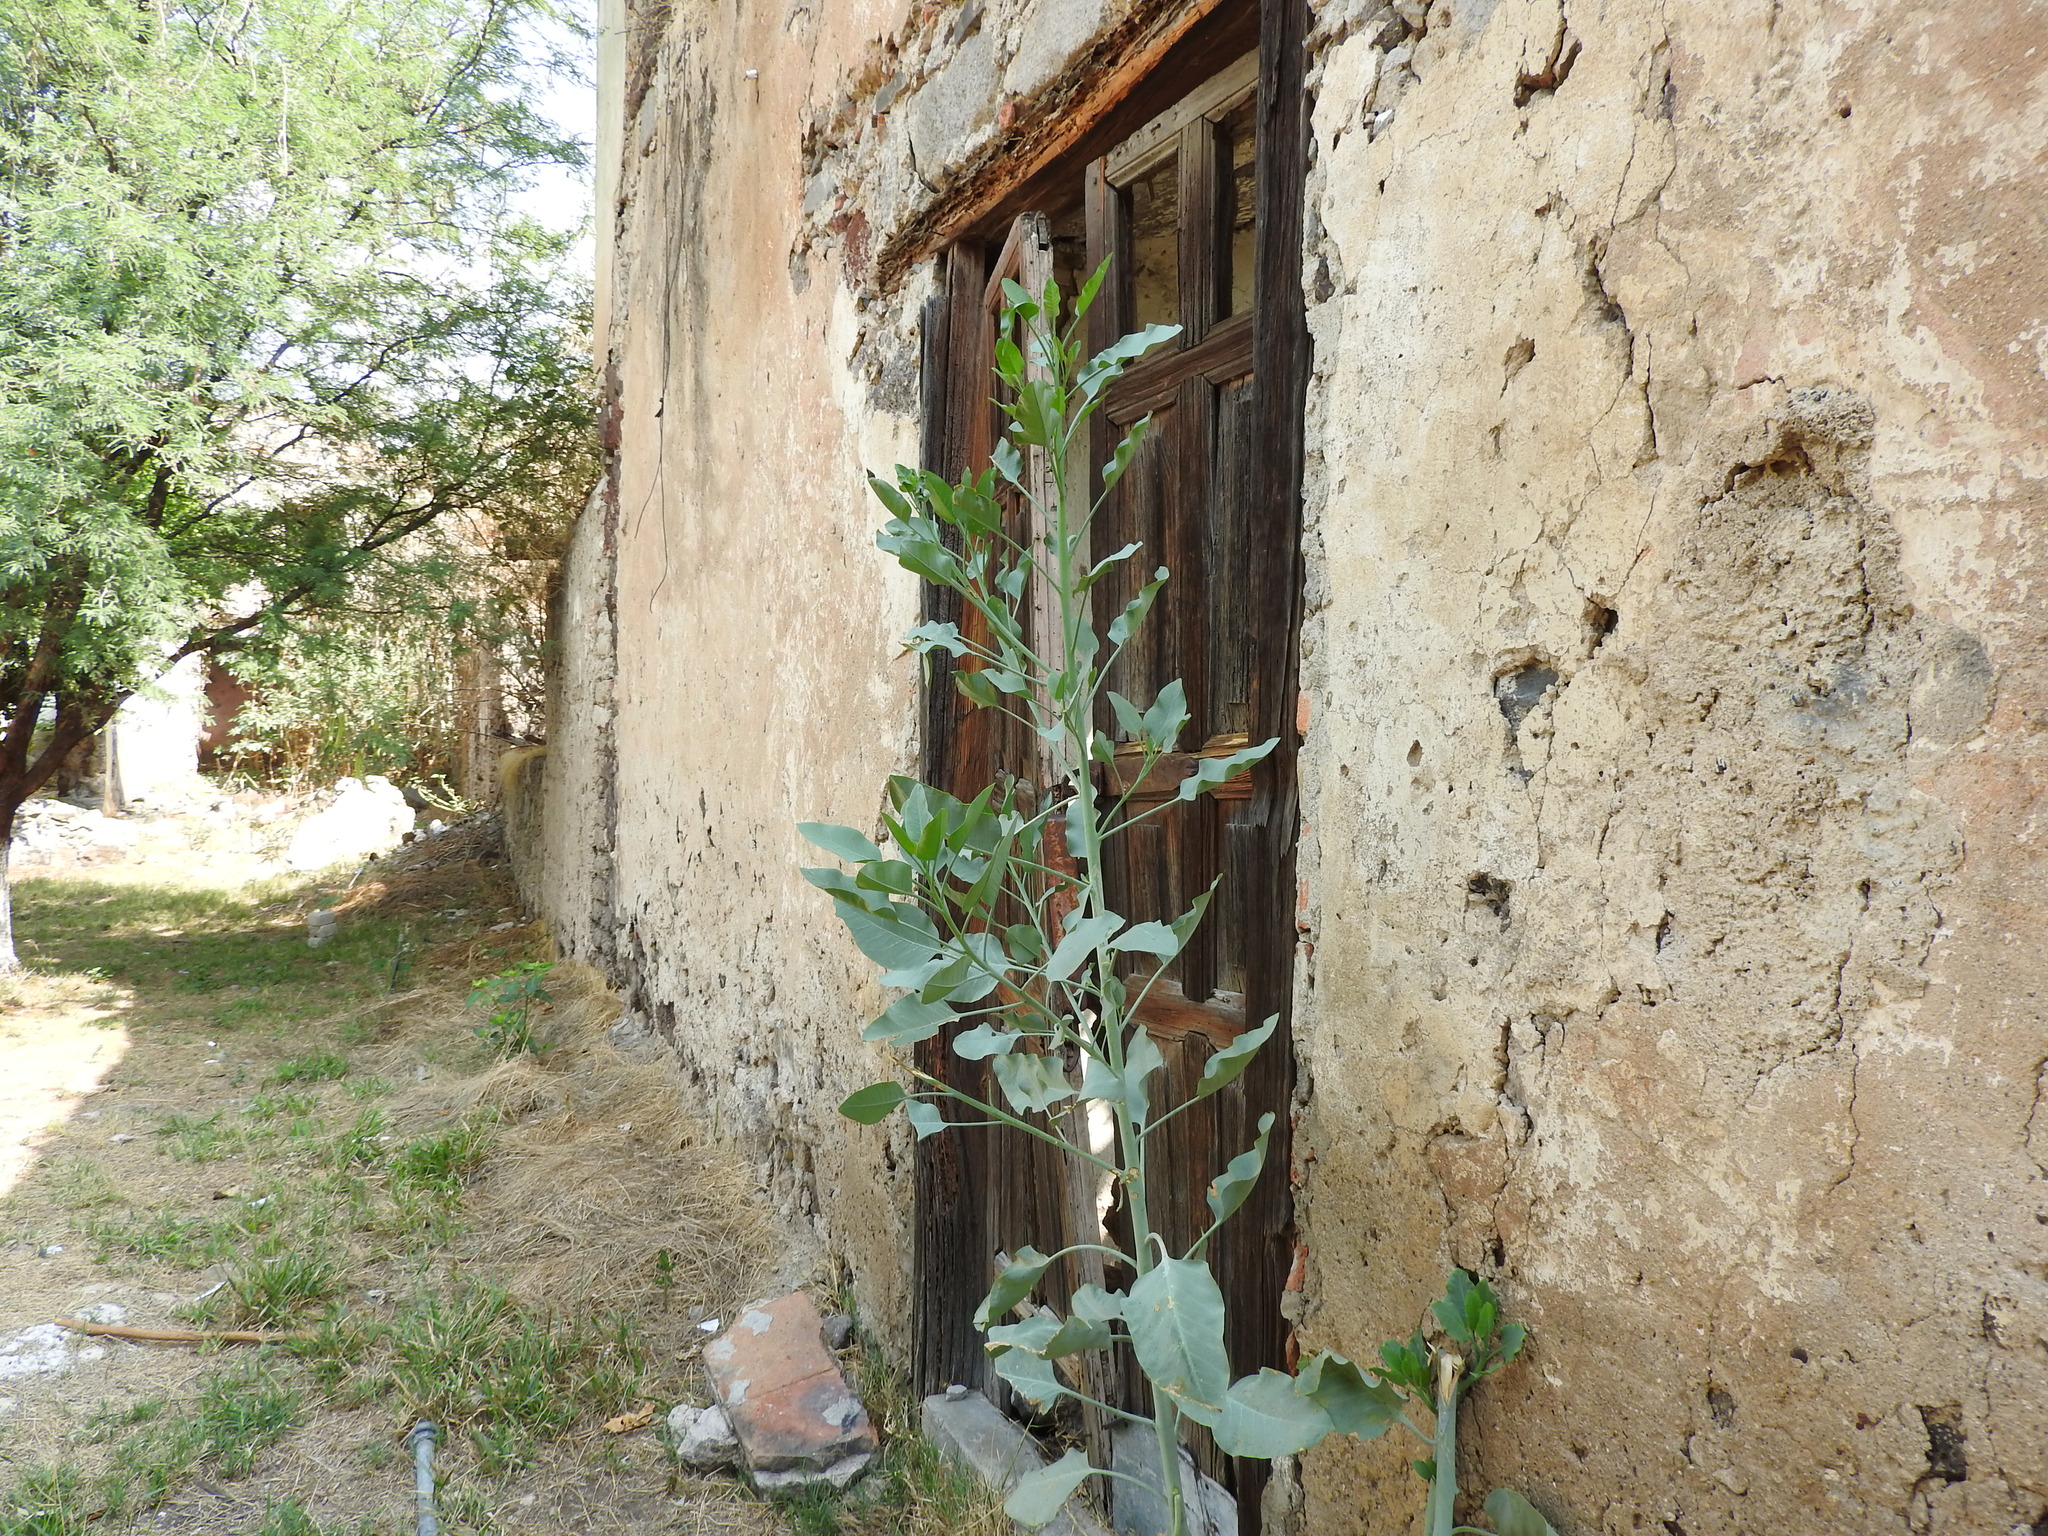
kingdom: Plantae
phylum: Tracheophyta
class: Magnoliopsida
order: Solanales
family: Solanaceae
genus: Nicotiana
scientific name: Nicotiana glauca
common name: Tree tobacco
